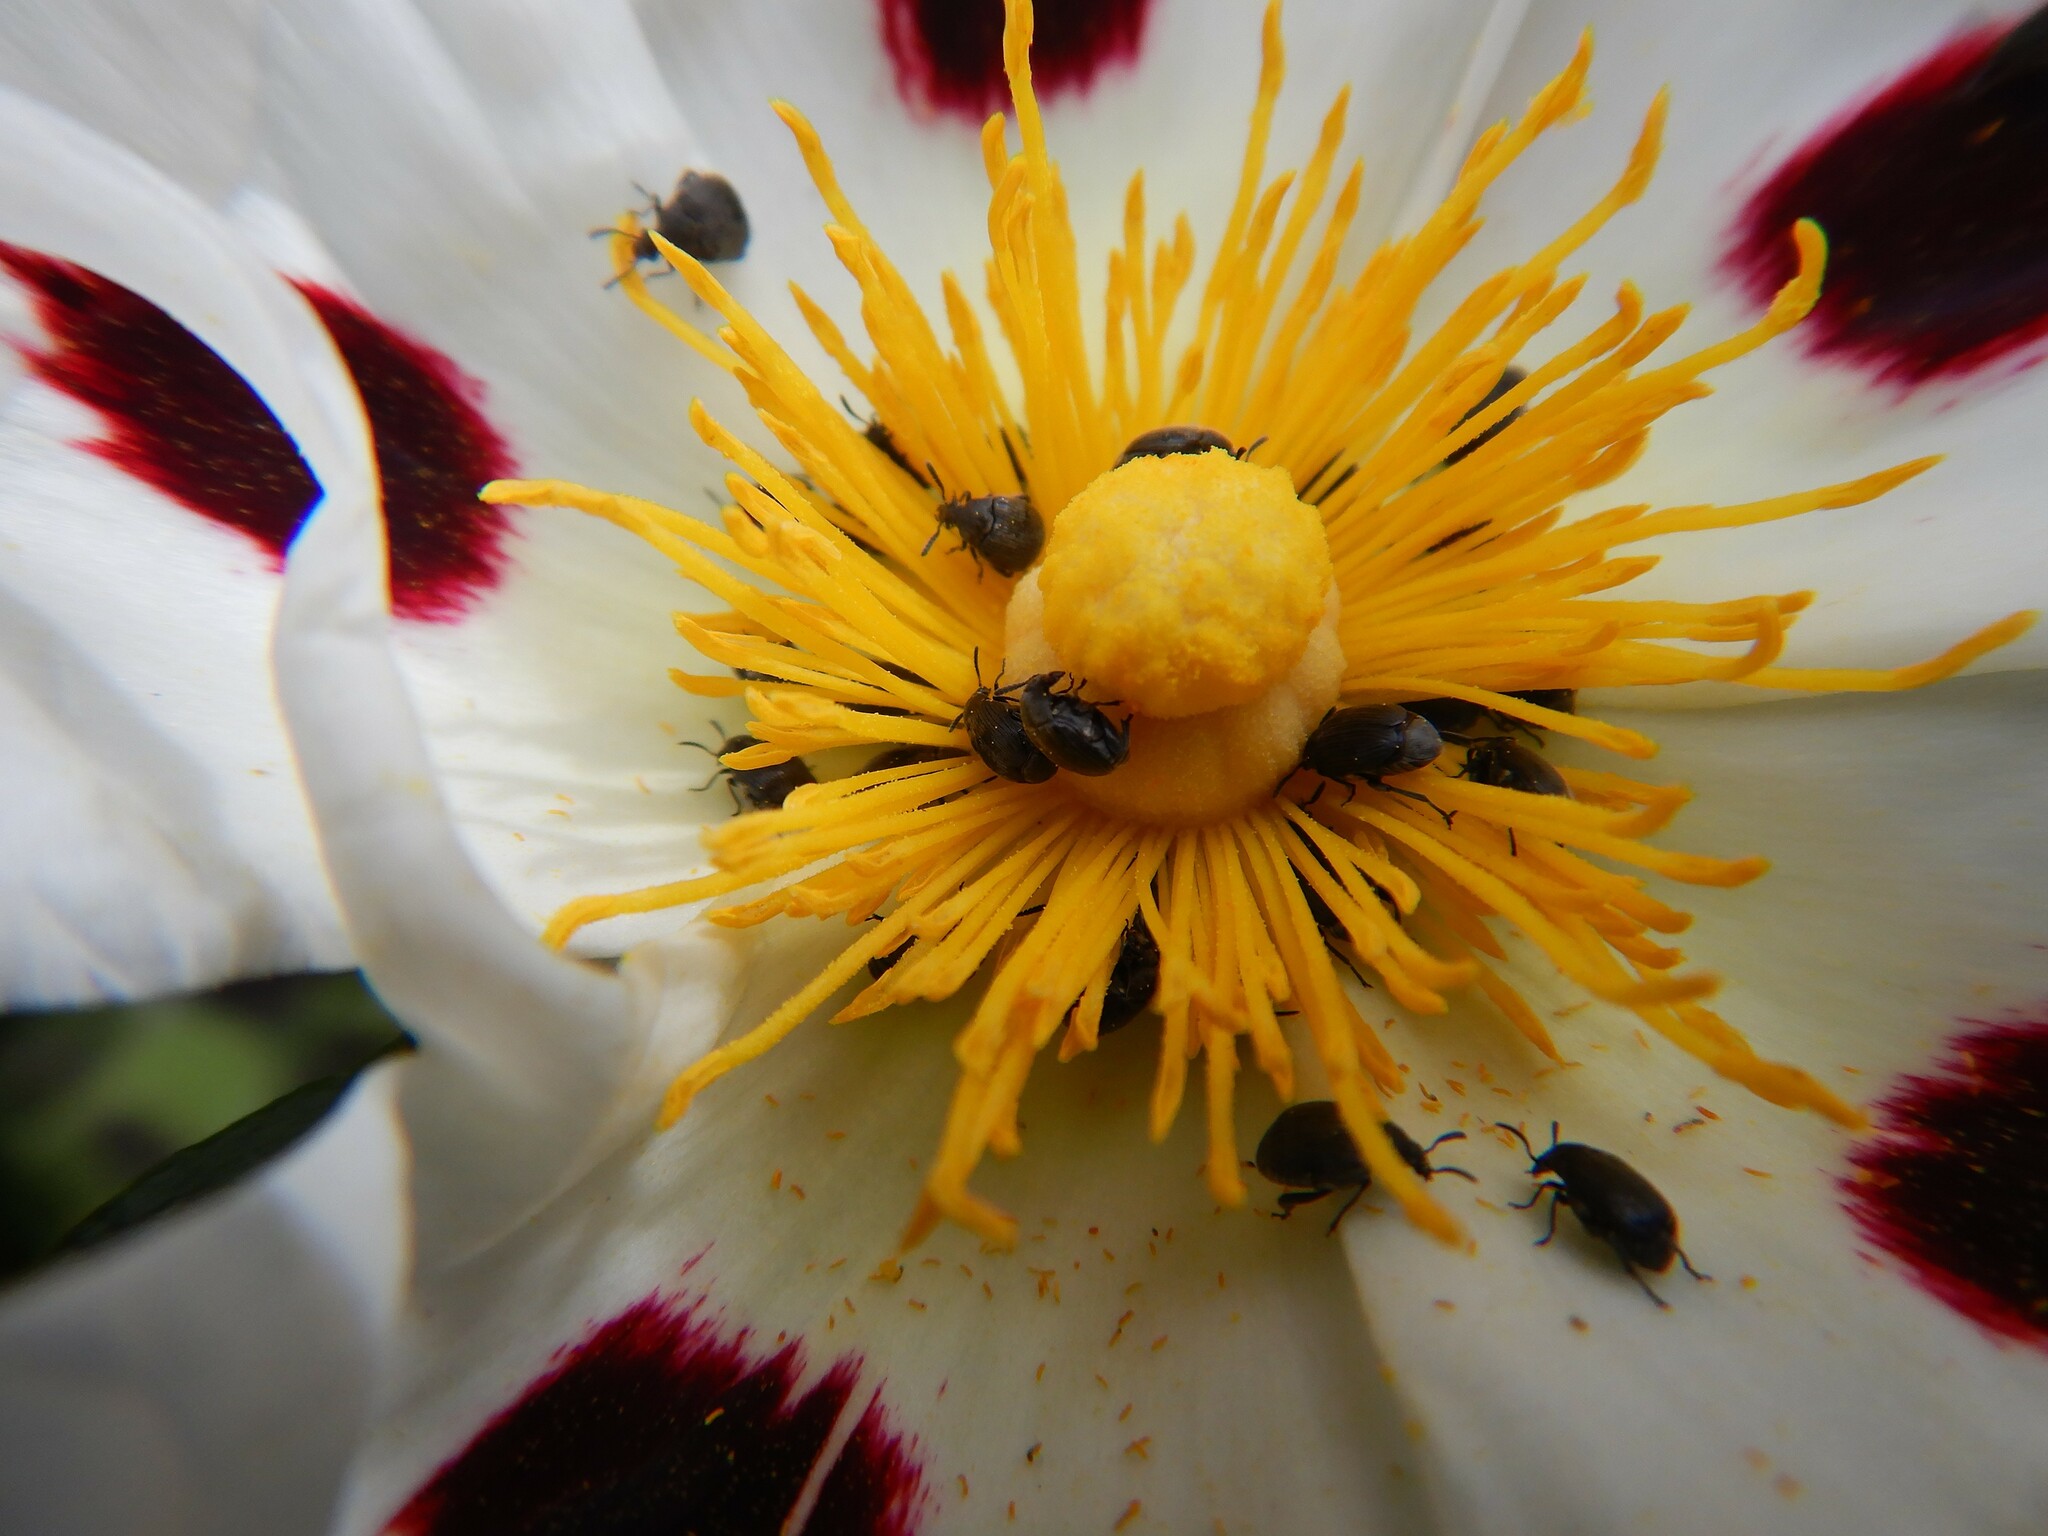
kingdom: Animalia
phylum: Arthropoda
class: Insecta
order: Coleoptera
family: Chrysomelidae
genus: Bruchidius
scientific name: Bruchidius villosus
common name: Scotch broom bruchid
